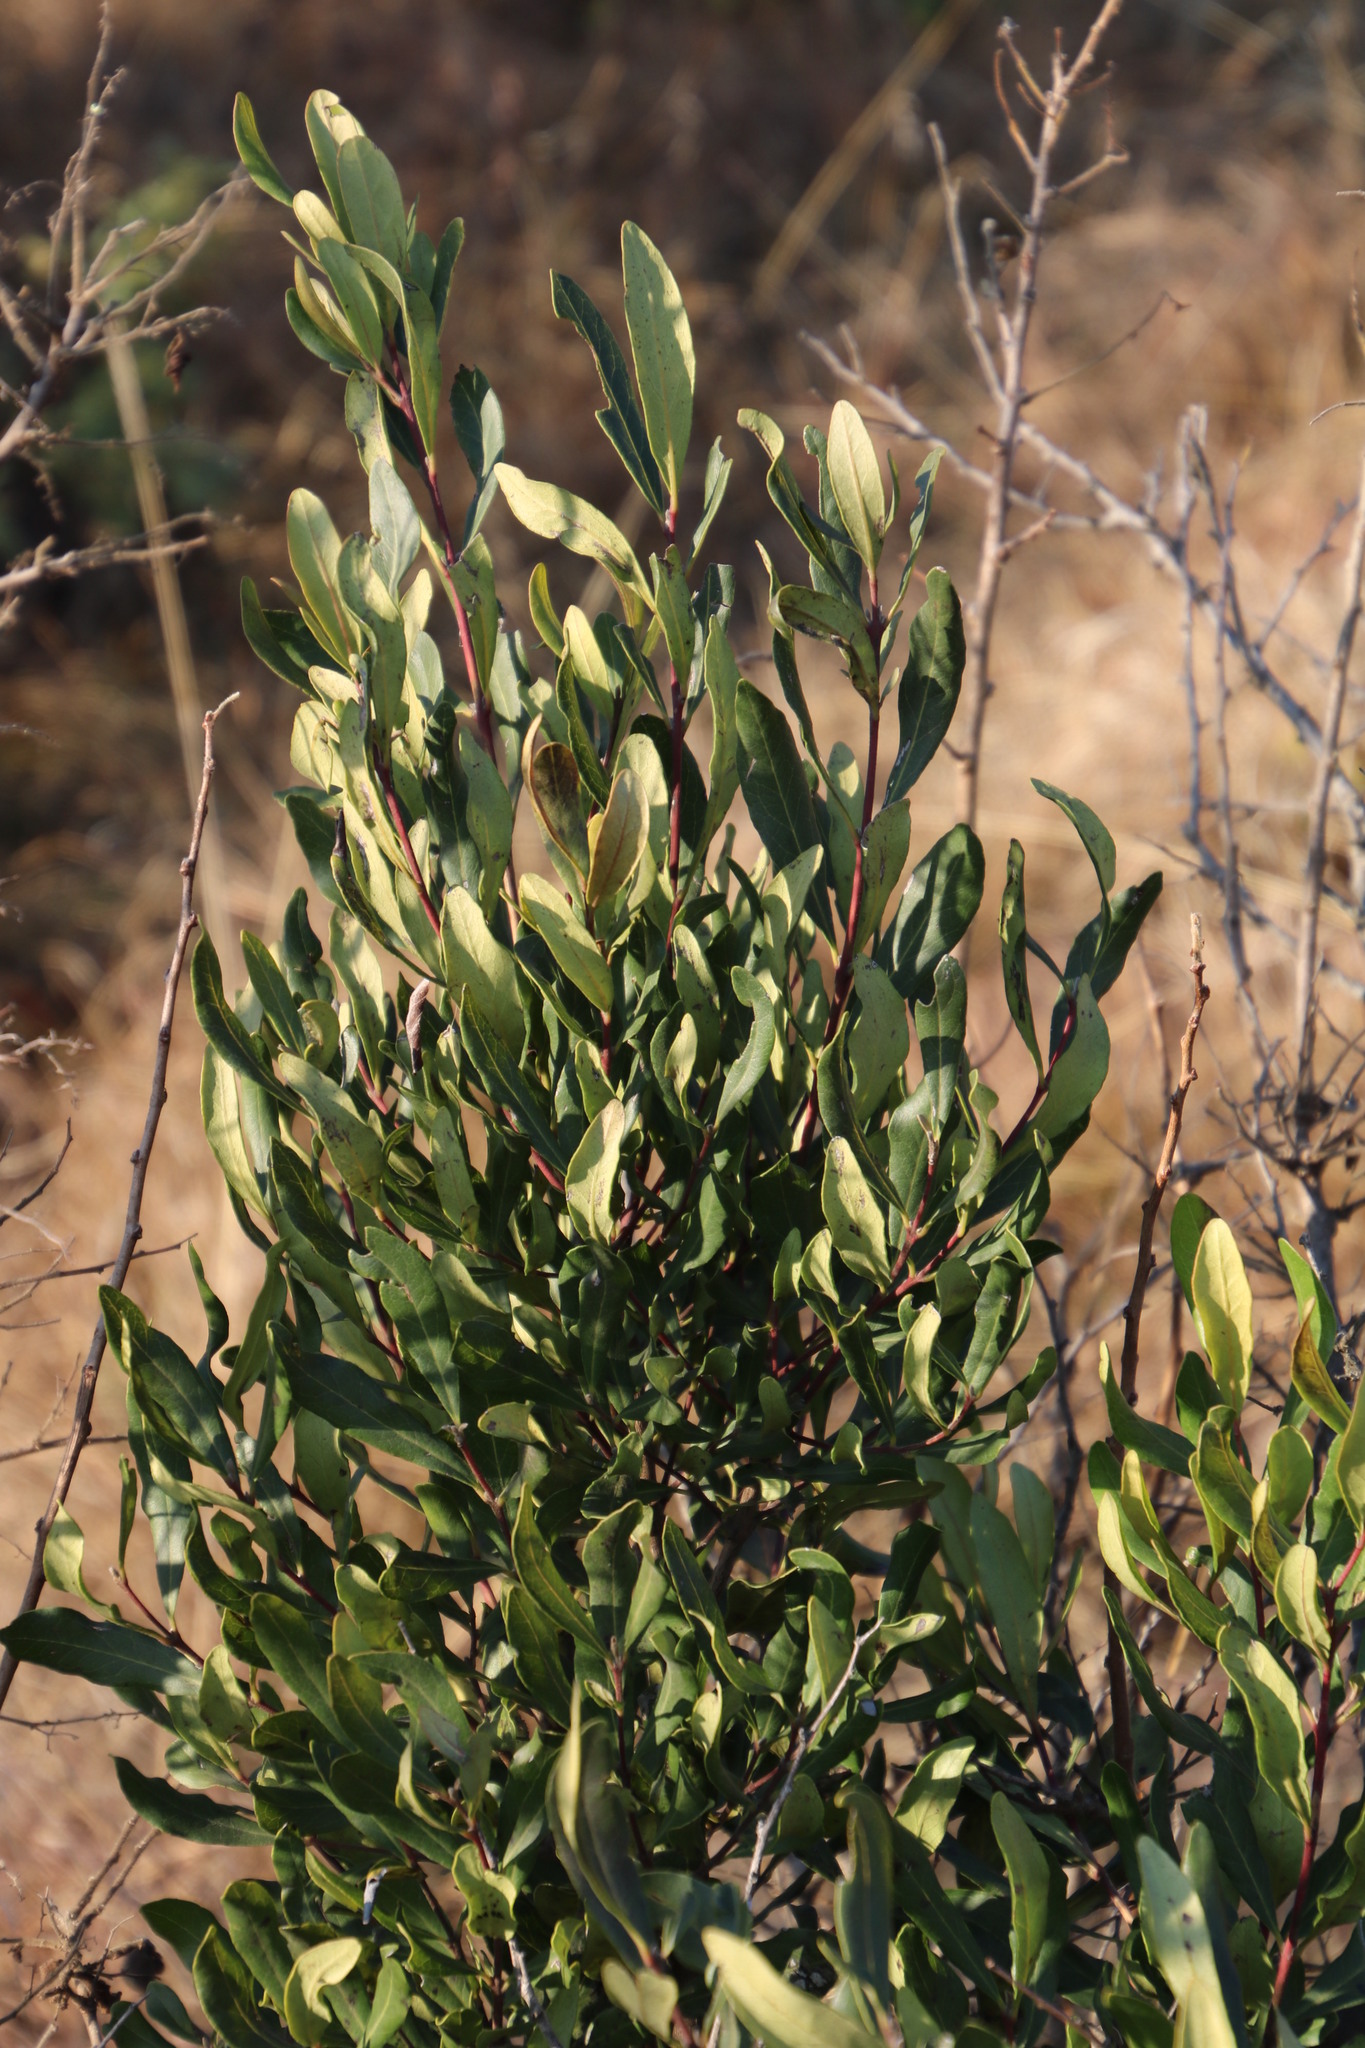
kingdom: Plantae
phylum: Tracheophyta
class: Magnoliopsida
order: Ericales
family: Ebenaceae
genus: Euclea
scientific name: Euclea crispa
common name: Blue guarri
